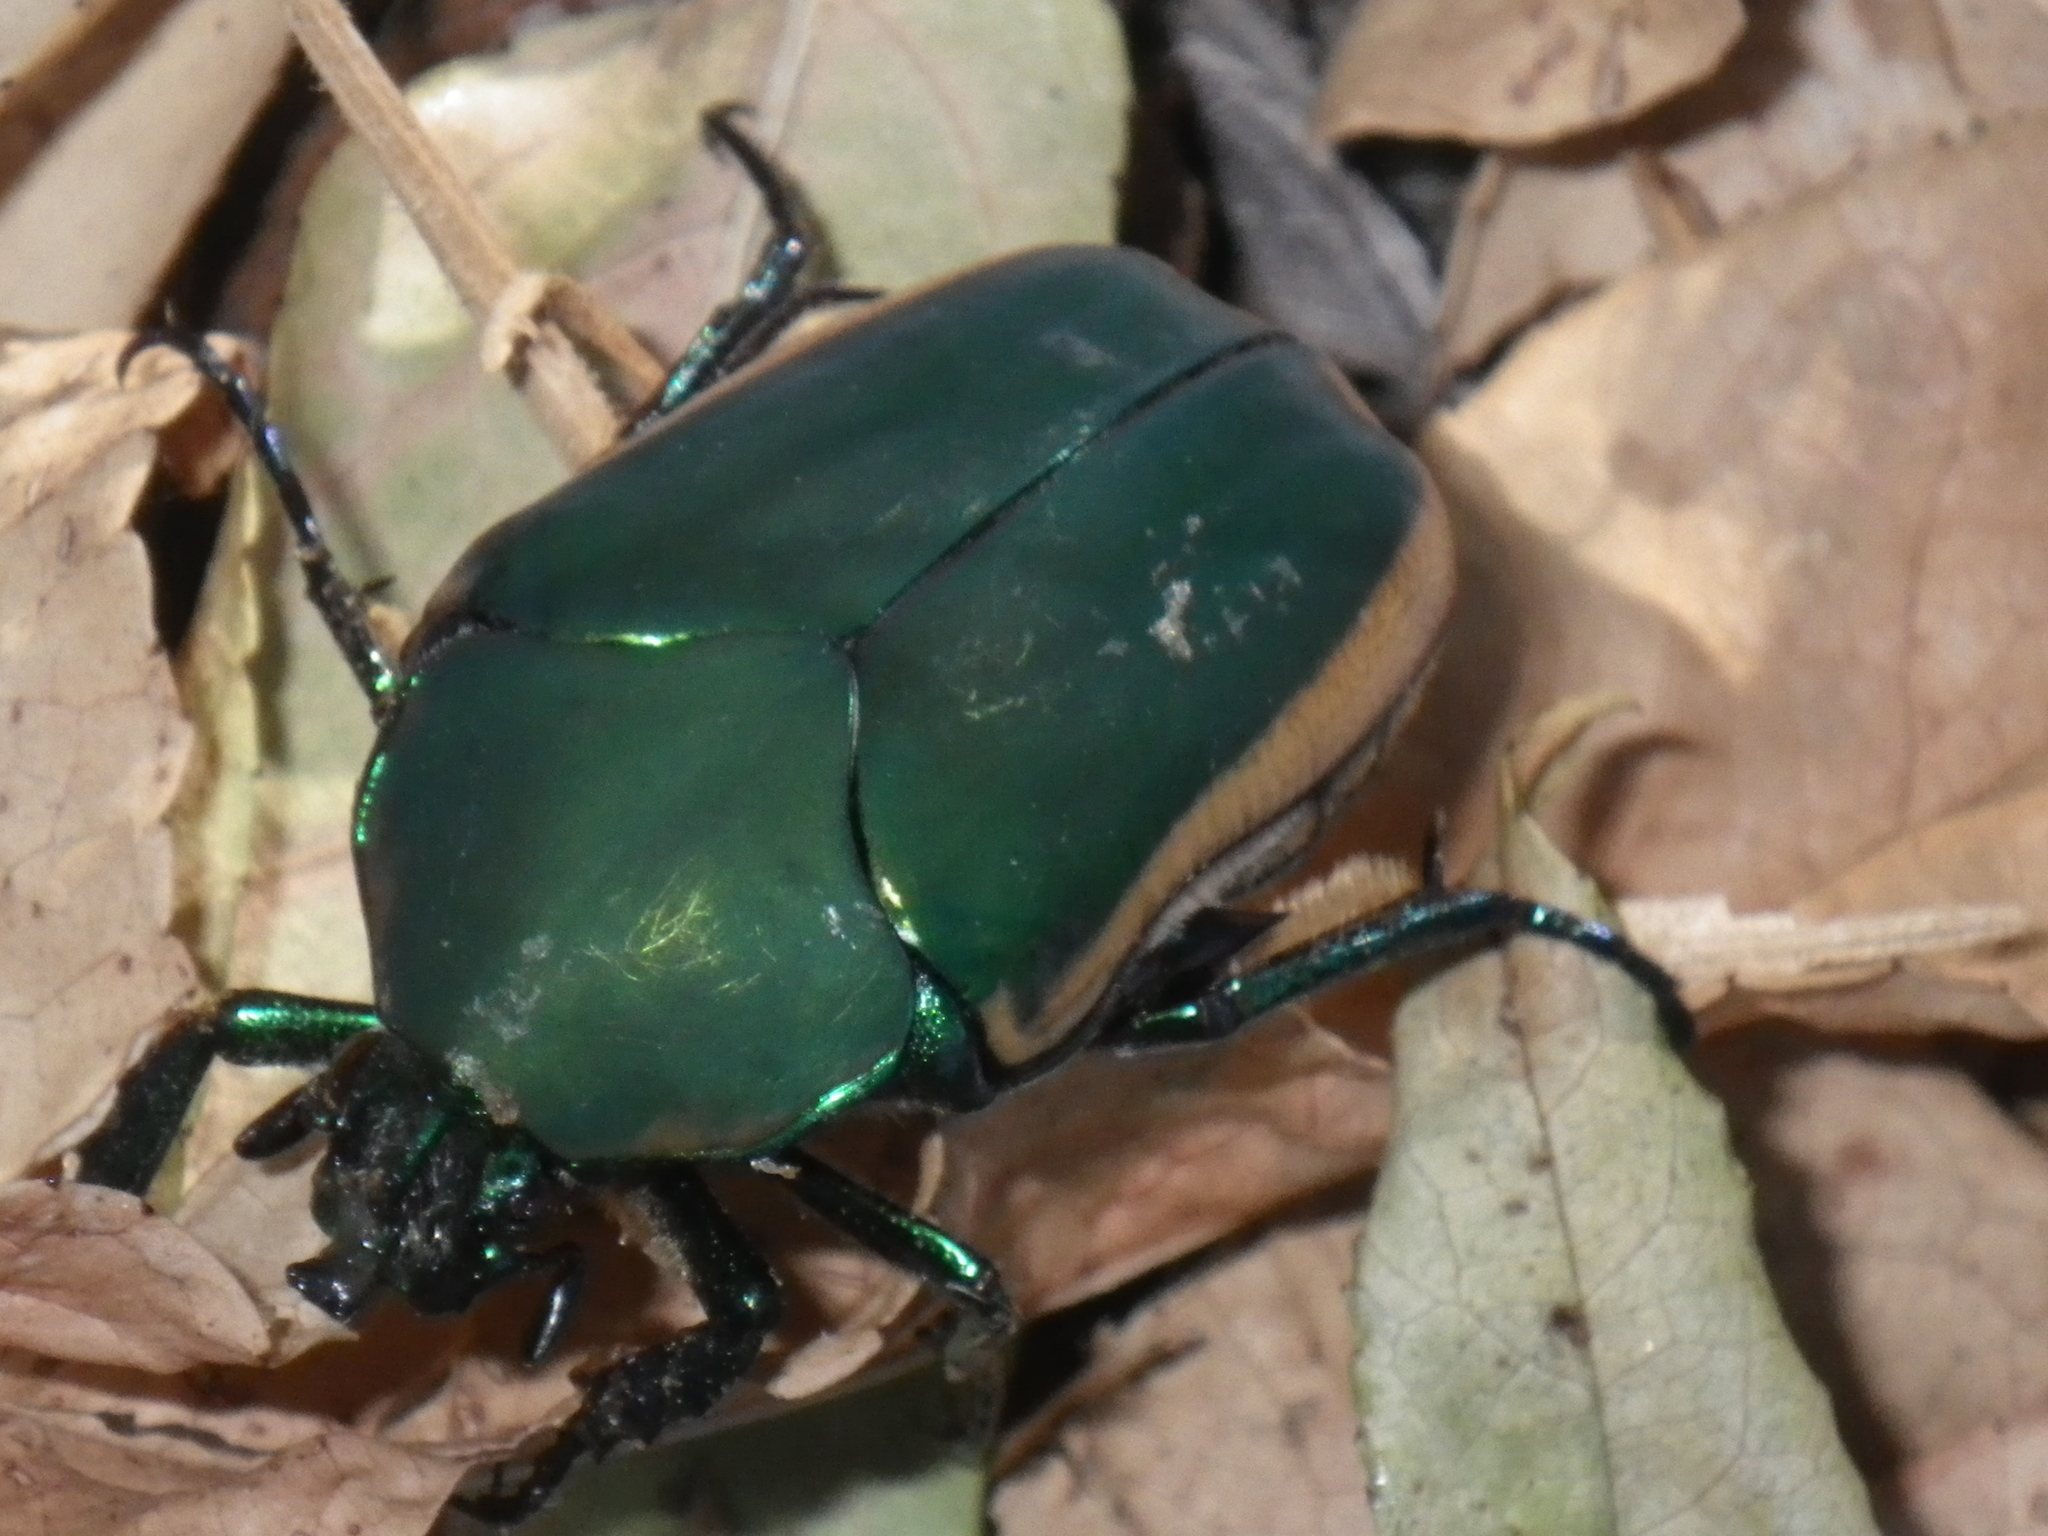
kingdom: Animalia
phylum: Arthropoda
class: Insecta
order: Coleoptera
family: Scarabaeidae
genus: Cotinis
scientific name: Cotinis mutabilis
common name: Figeater beetle
